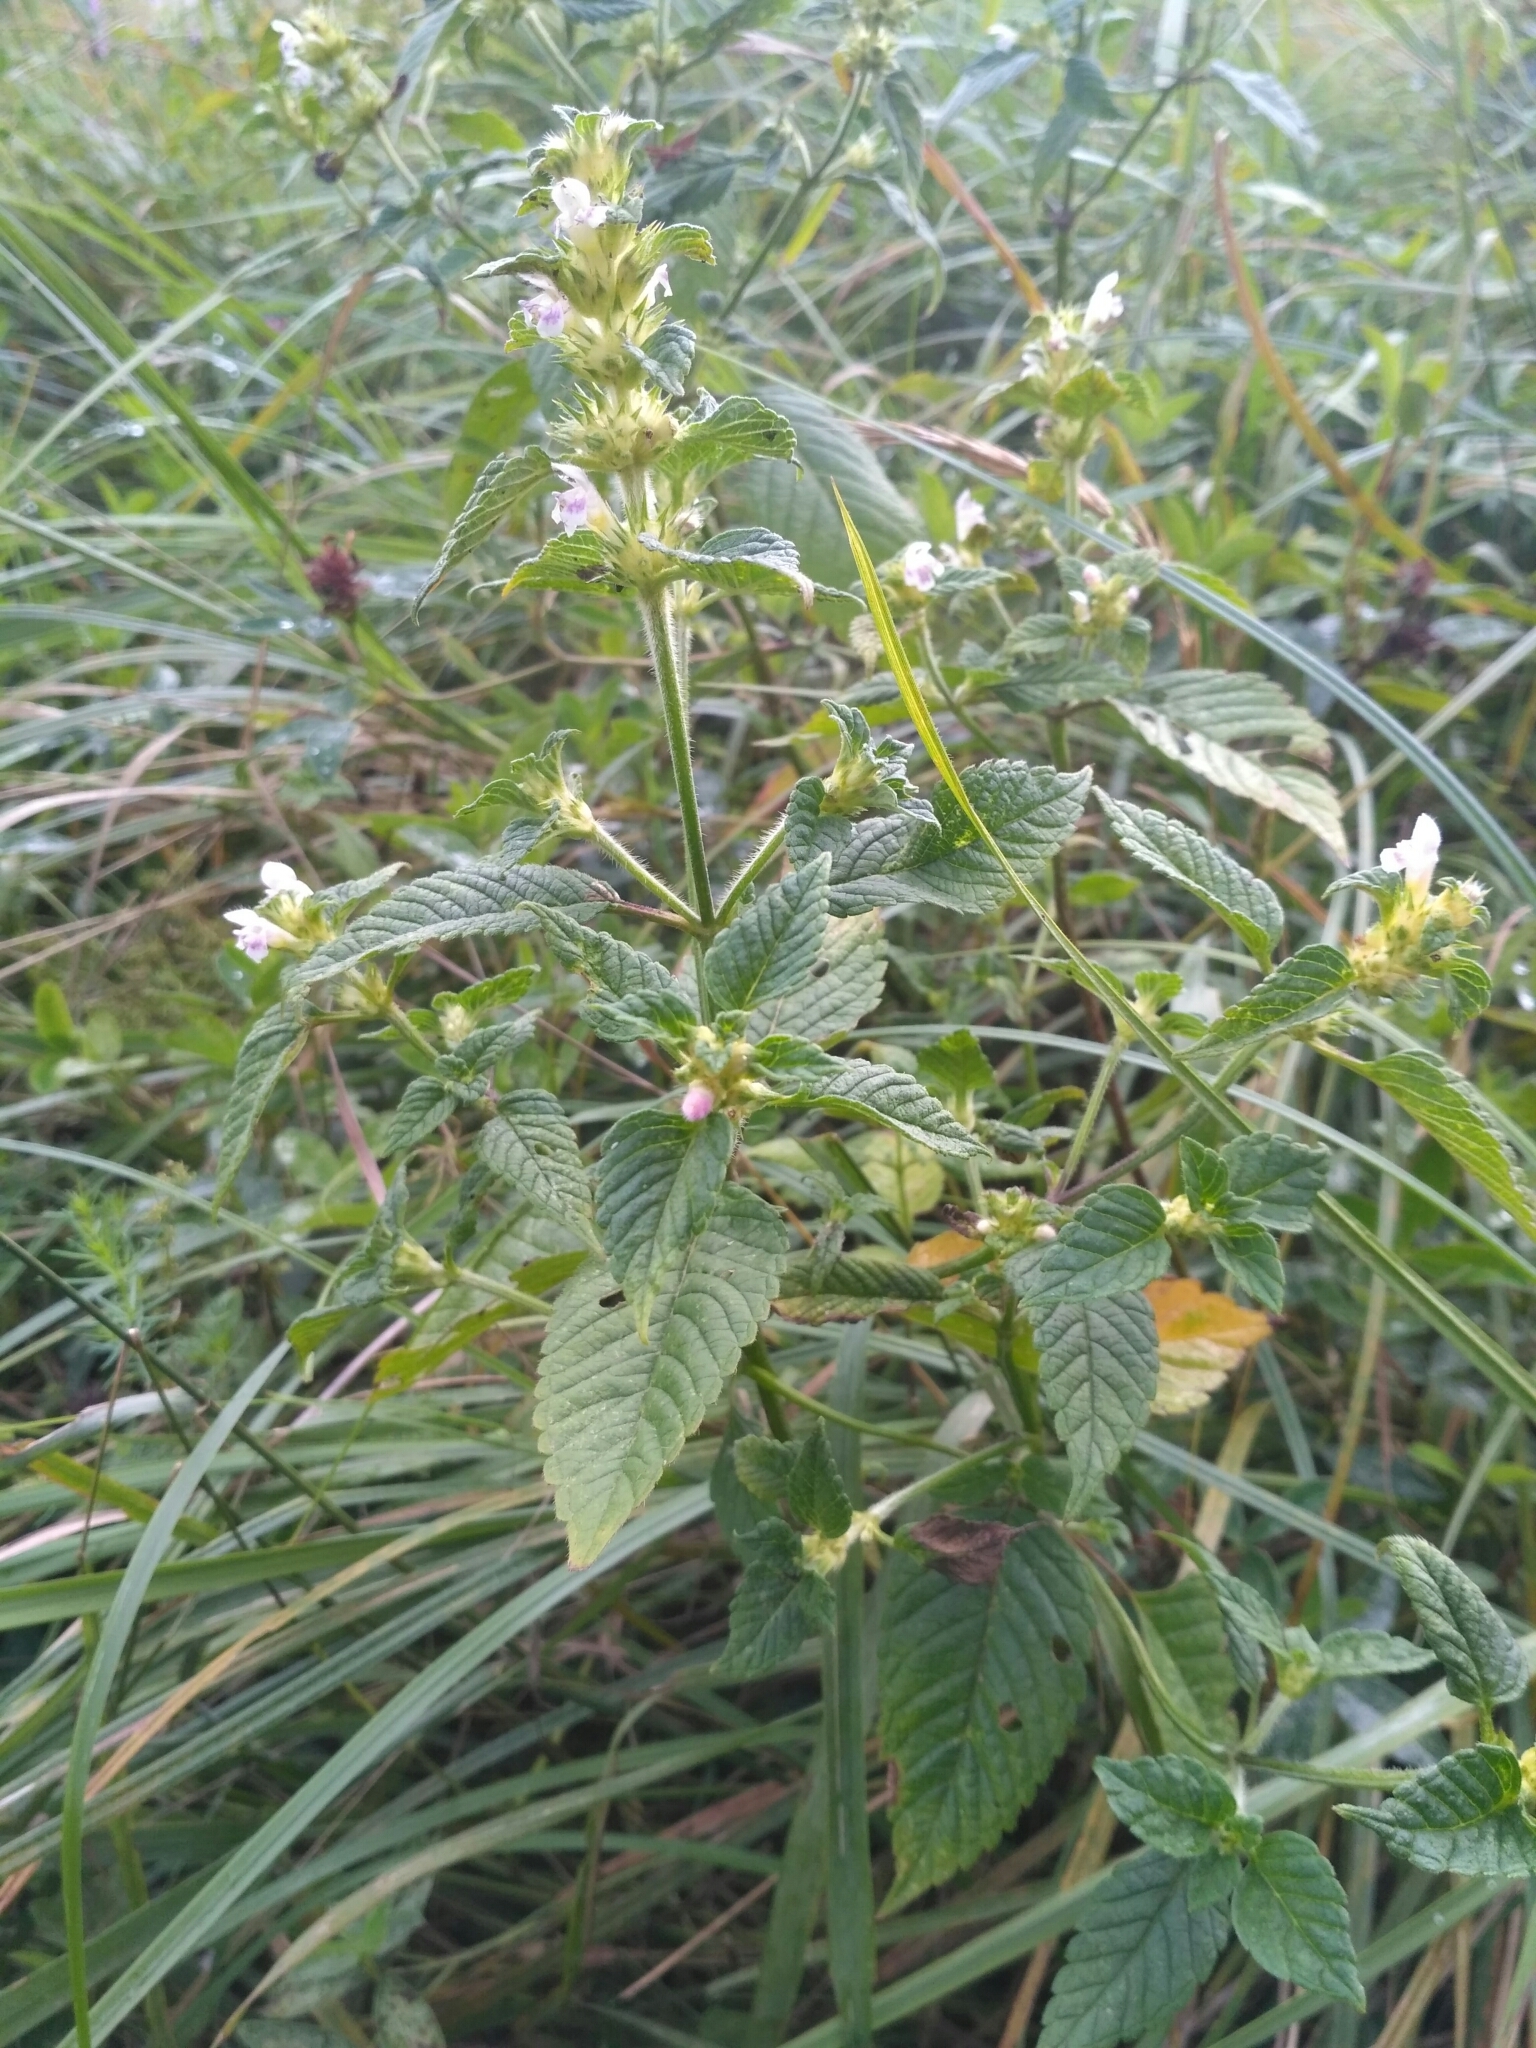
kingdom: Plantae
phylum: Tracheophyta
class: Magnoliopsida
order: Lamiales
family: Lamiaceae
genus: Galeopsis
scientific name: Galeopsis tetrahit
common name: Common hemp-nettle
